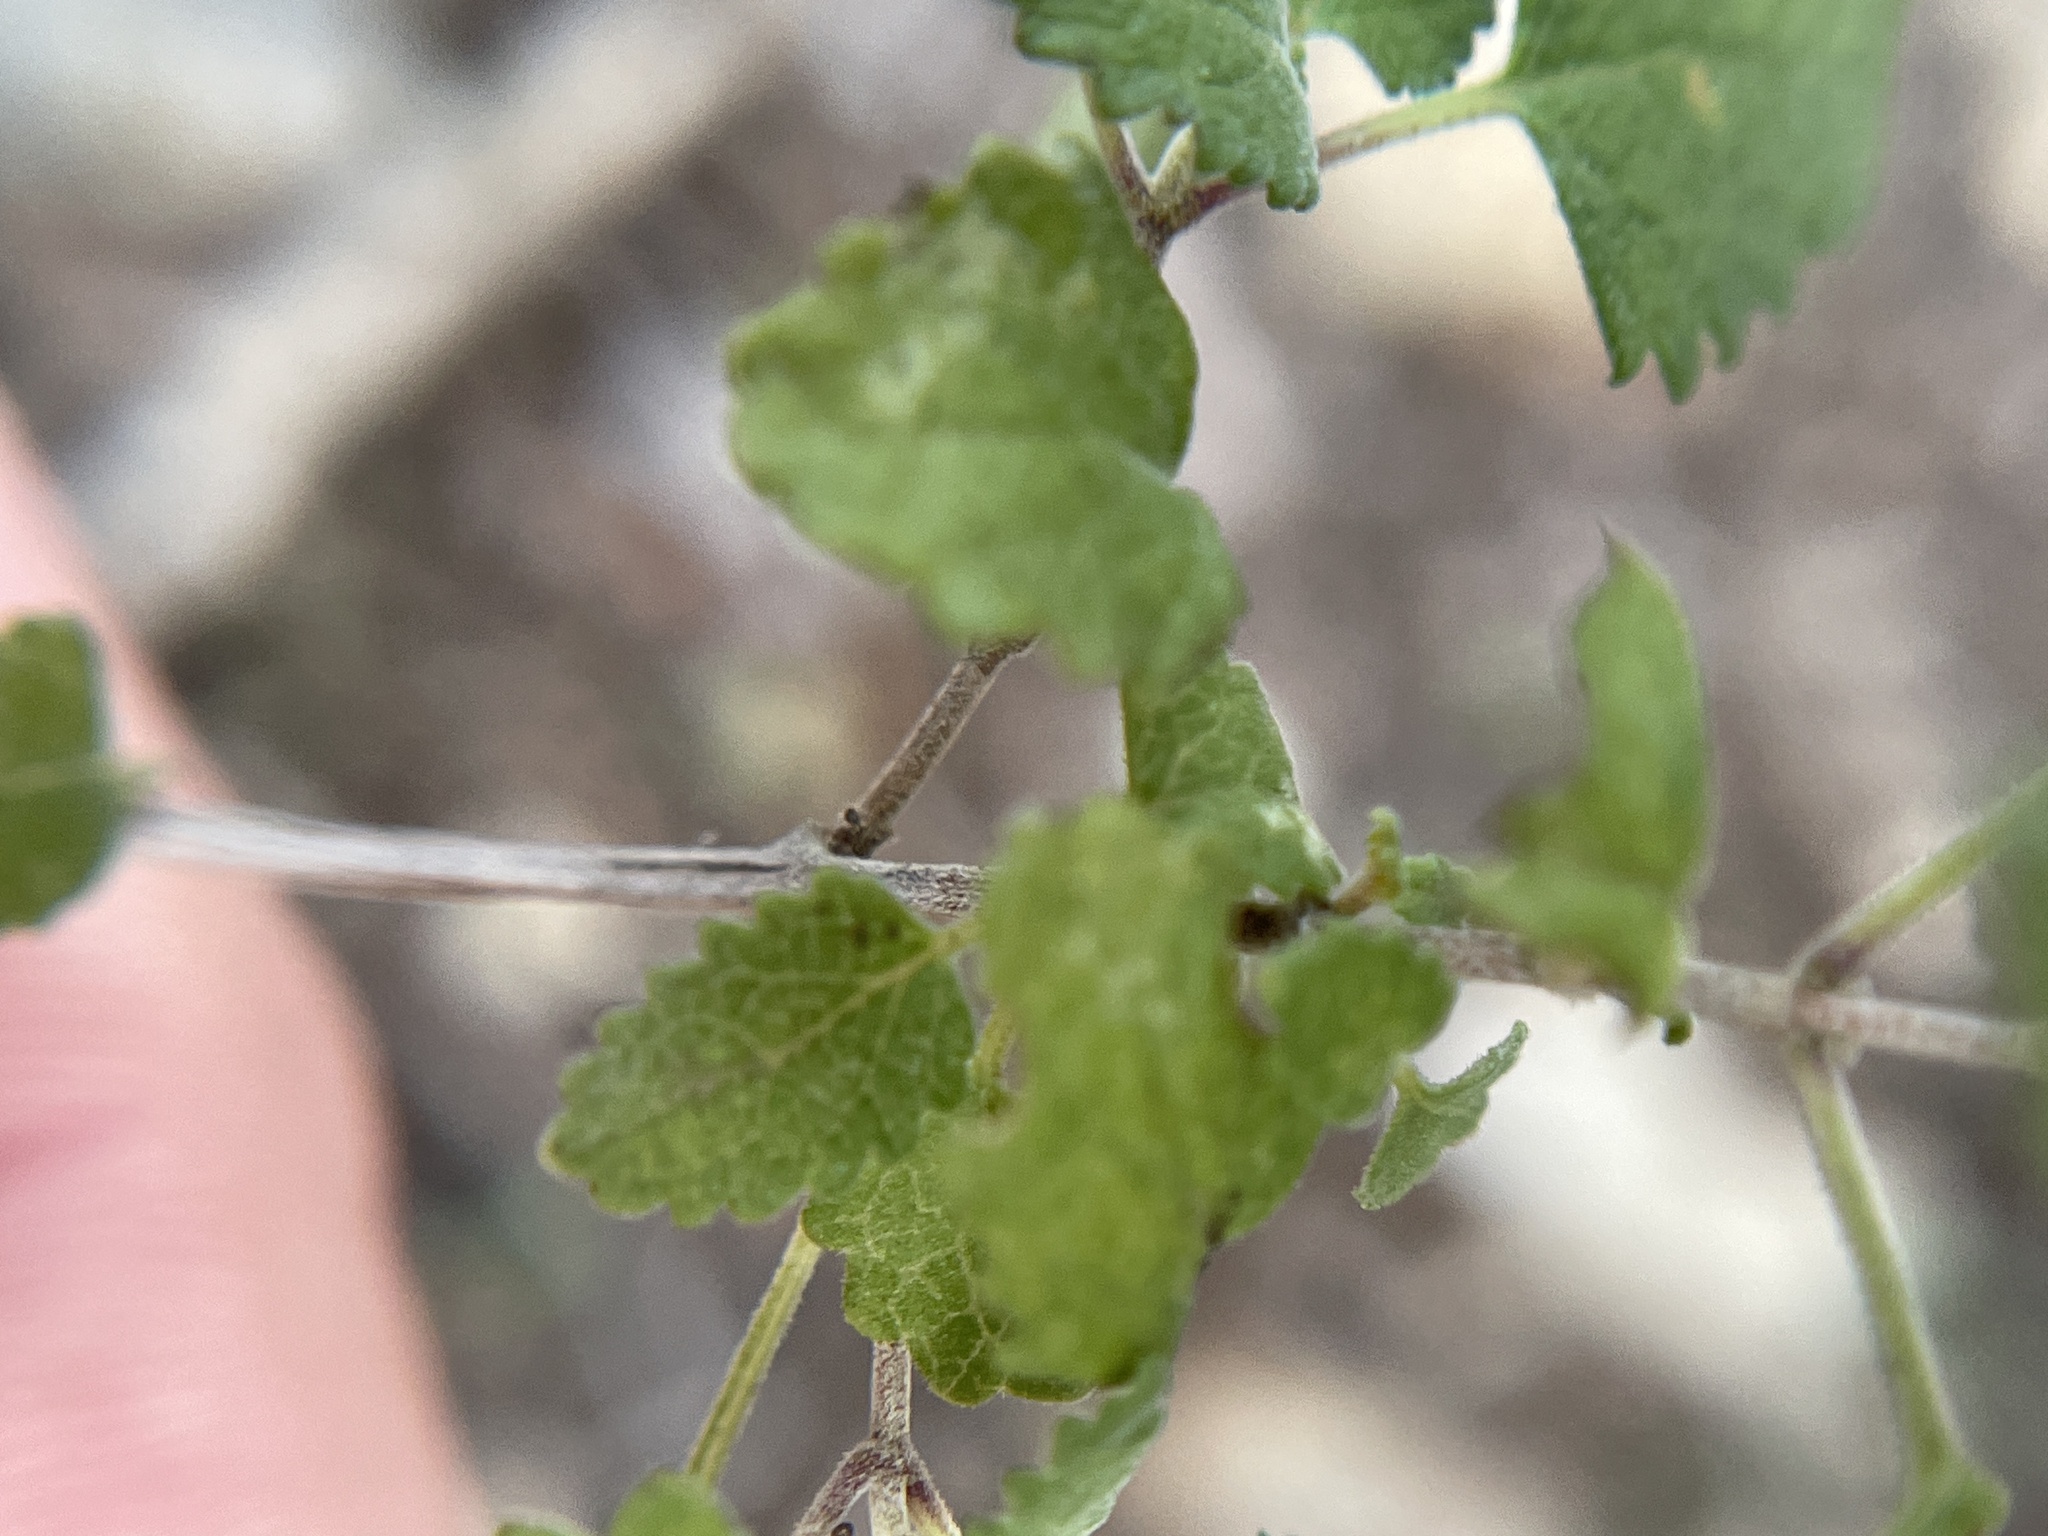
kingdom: Plantae
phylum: Tracheophyta
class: Magnoliopsida
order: Lamiales
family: Lamiaceae
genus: Salvia
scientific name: Salvia ballotiflora
